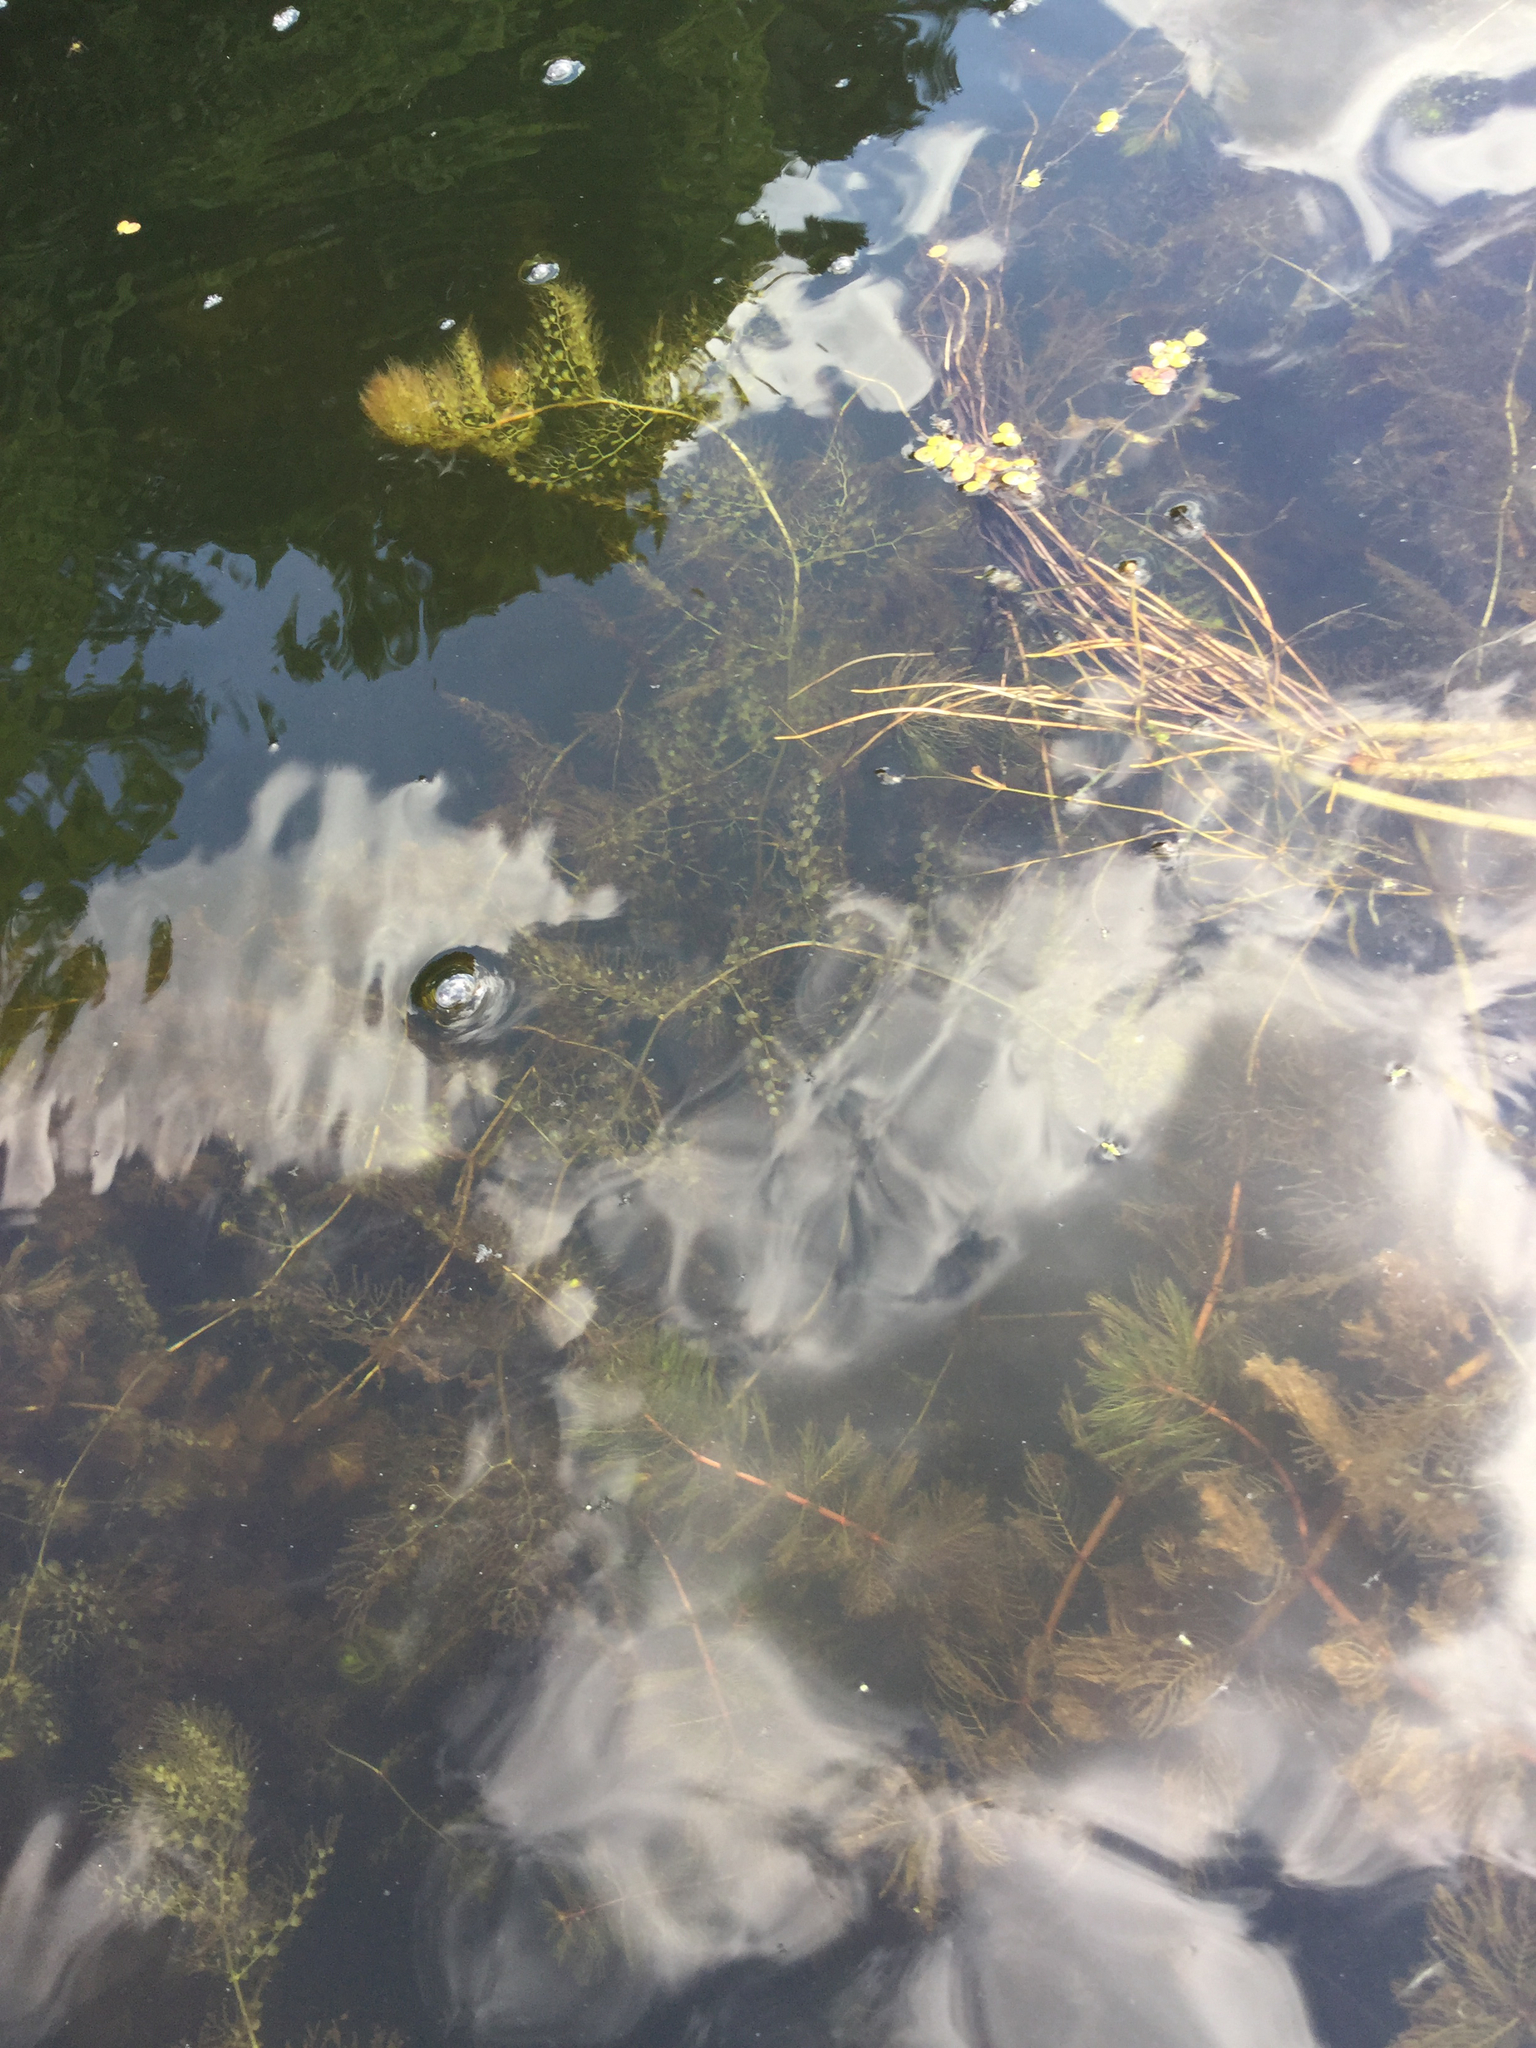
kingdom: Plantae
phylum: Tracheophyta
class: Magnoliopsida
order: Lamiales
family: Lentibulariaceae
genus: Utricularia
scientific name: Utricularia macrorhiza
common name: Common bladderwort
